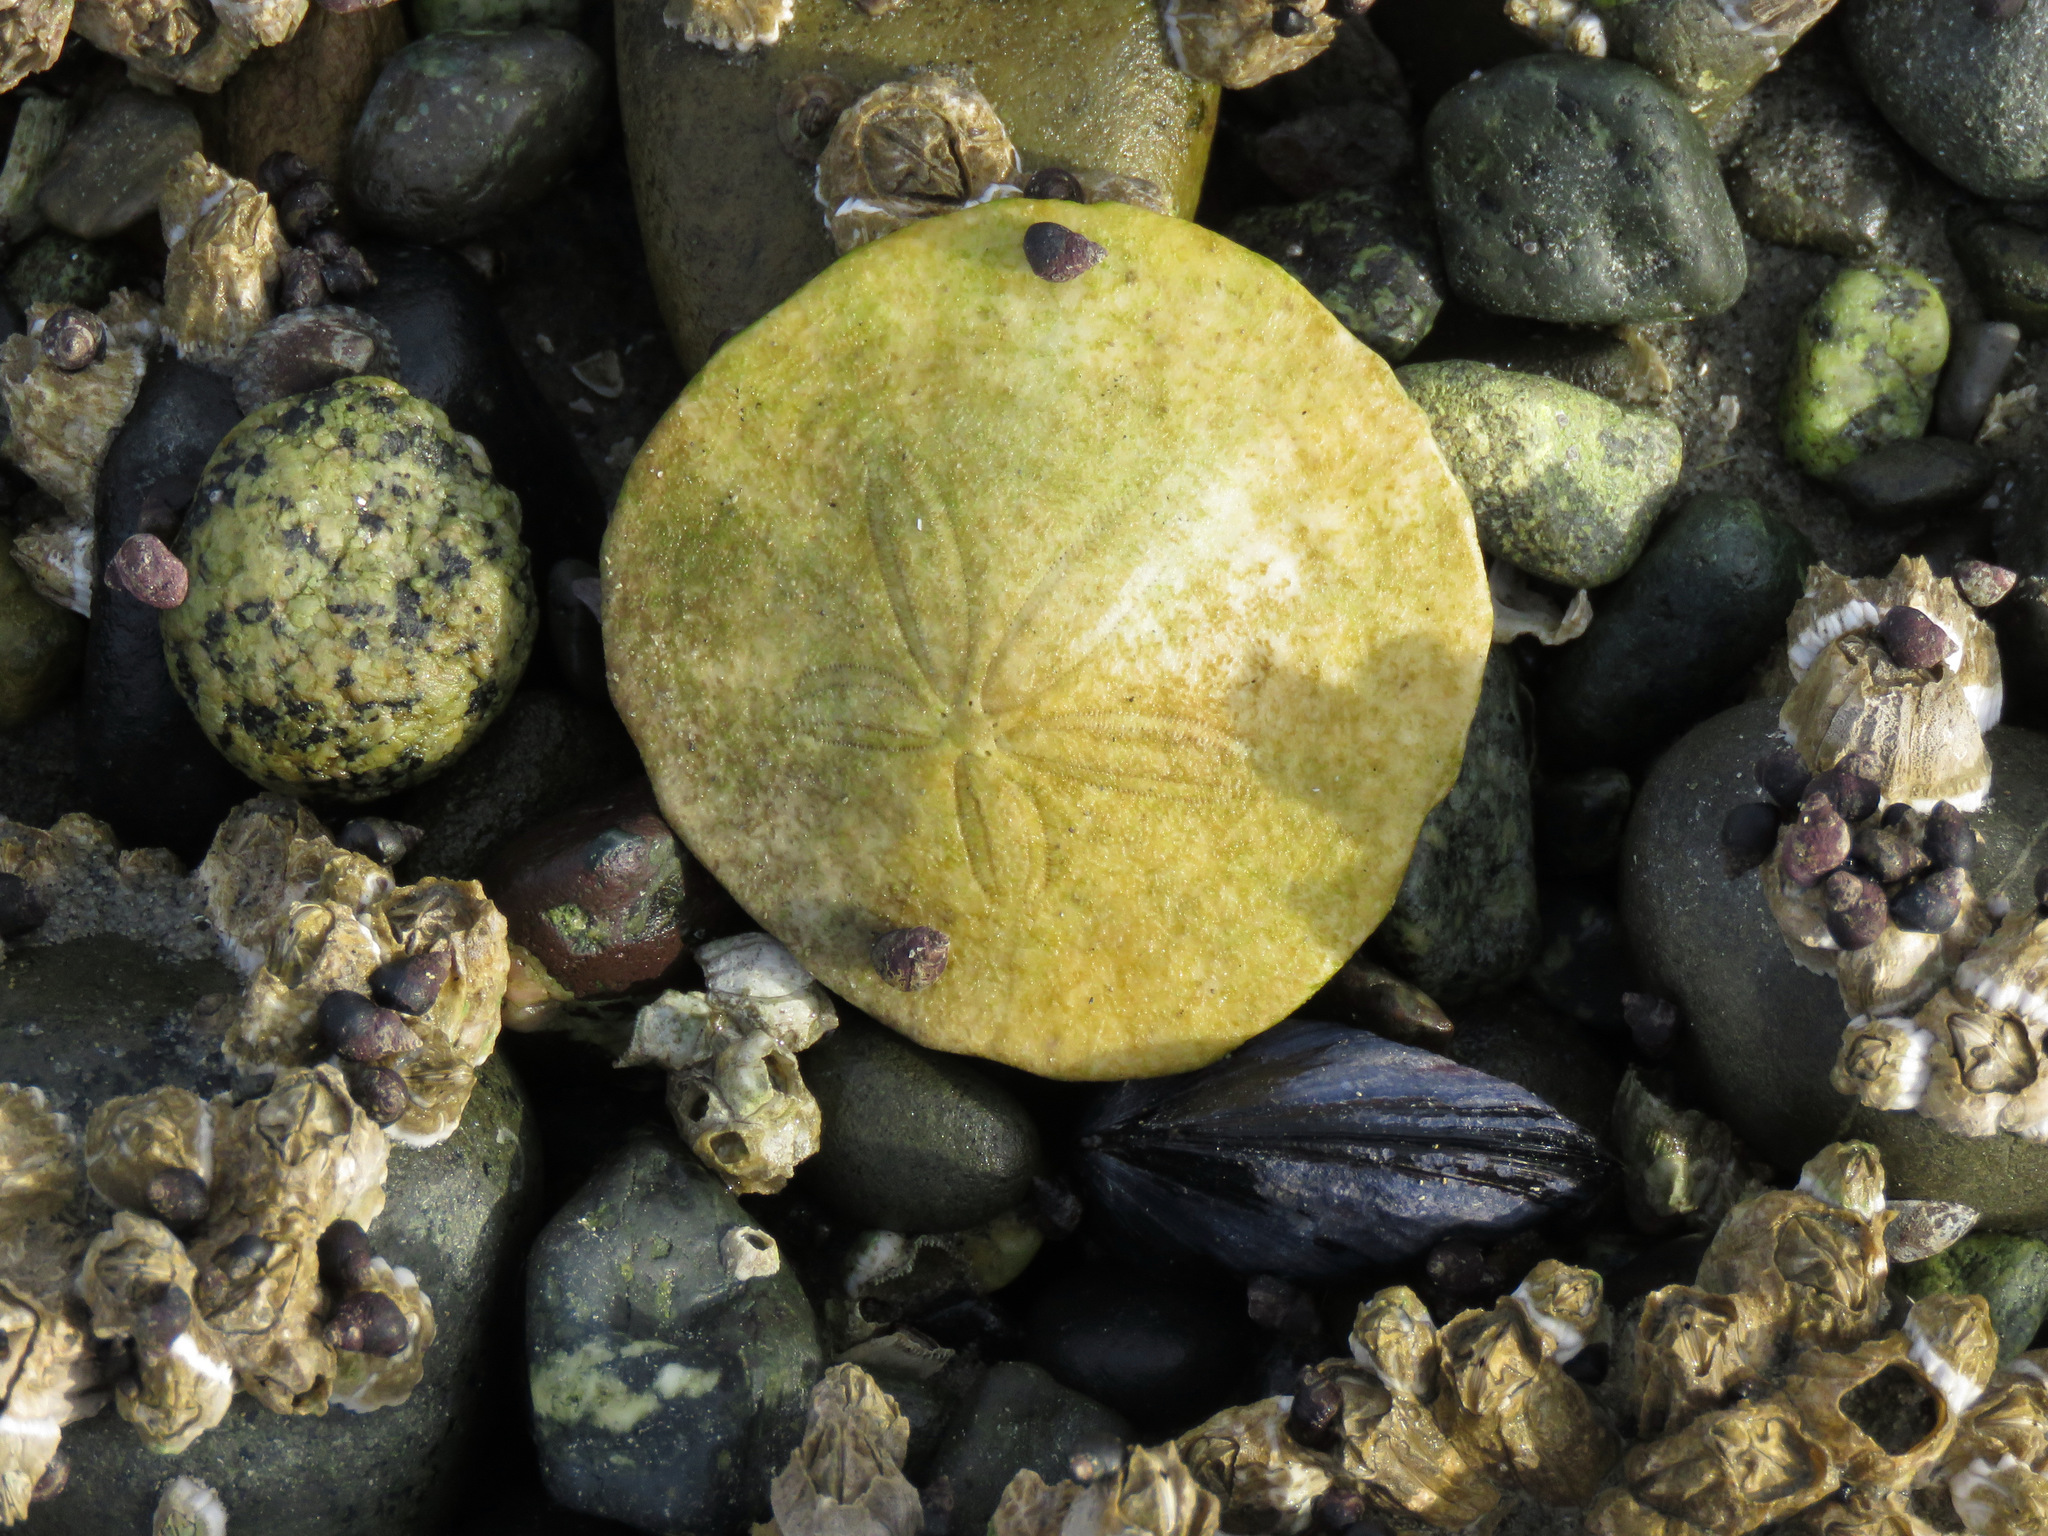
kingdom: Animalia
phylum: Echinodermata
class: Echinoidea
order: Echinolampadacea
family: Dendrasteridae
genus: Dendraster
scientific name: Dendraster excentricus
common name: Eccentric sand dollar sea urchin
